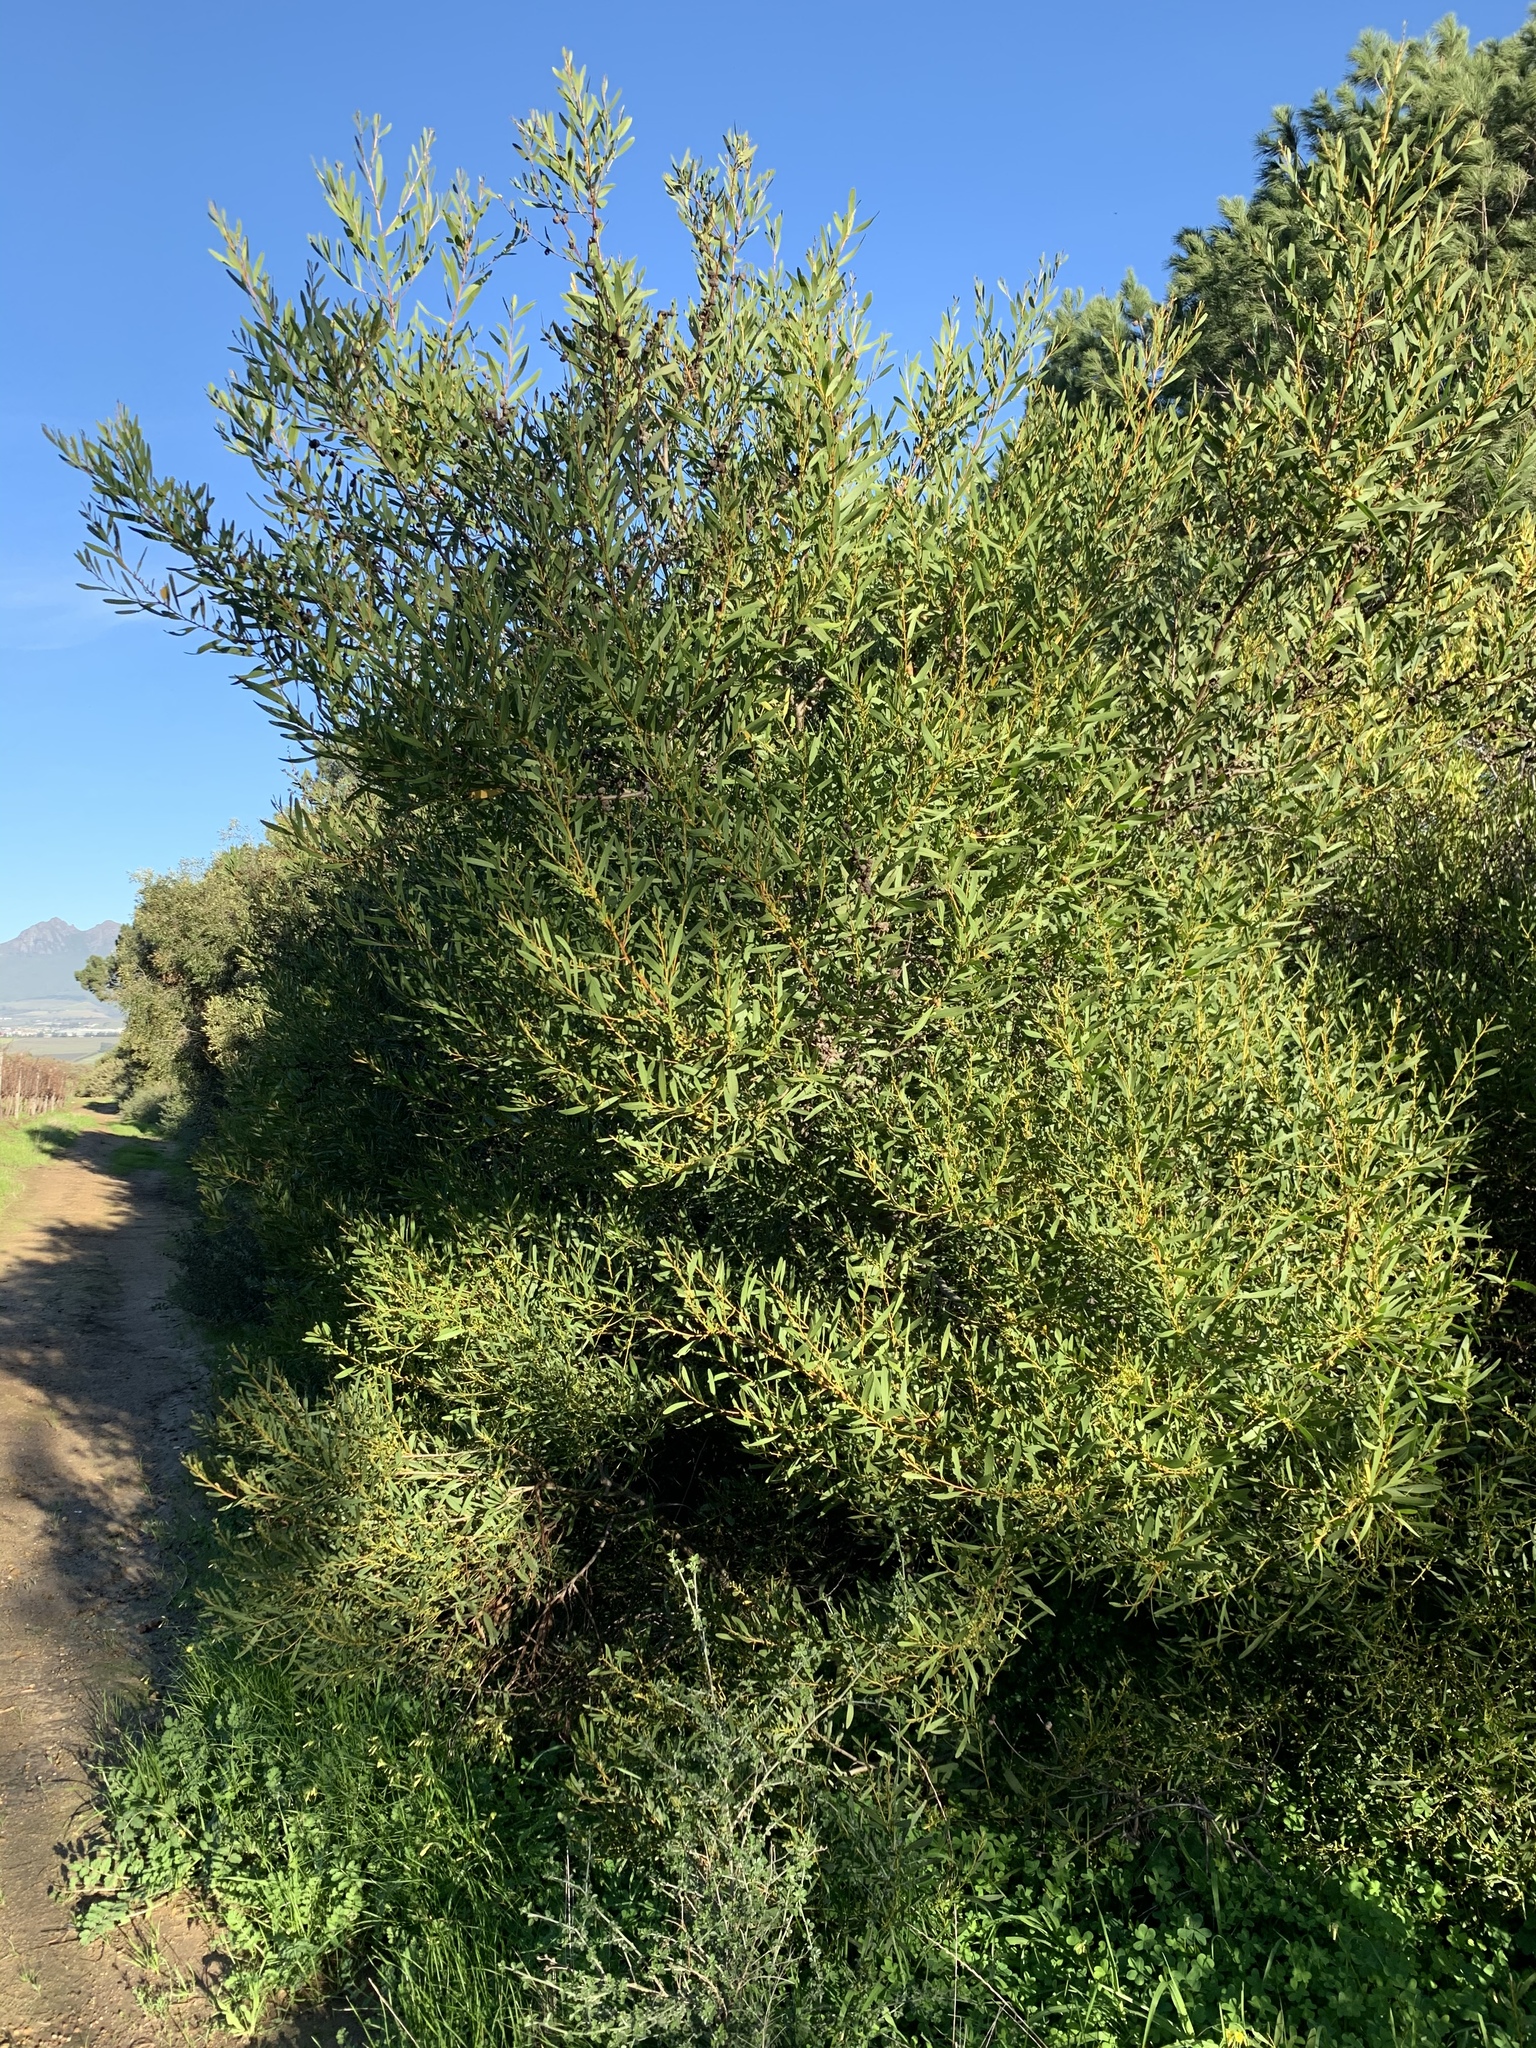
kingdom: Plantae
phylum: Tracheophyta
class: Magnoliopsida
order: Fabales
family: Fabaceae
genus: Acacia
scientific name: Acacia longifolia
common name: Sydney golden wattle
